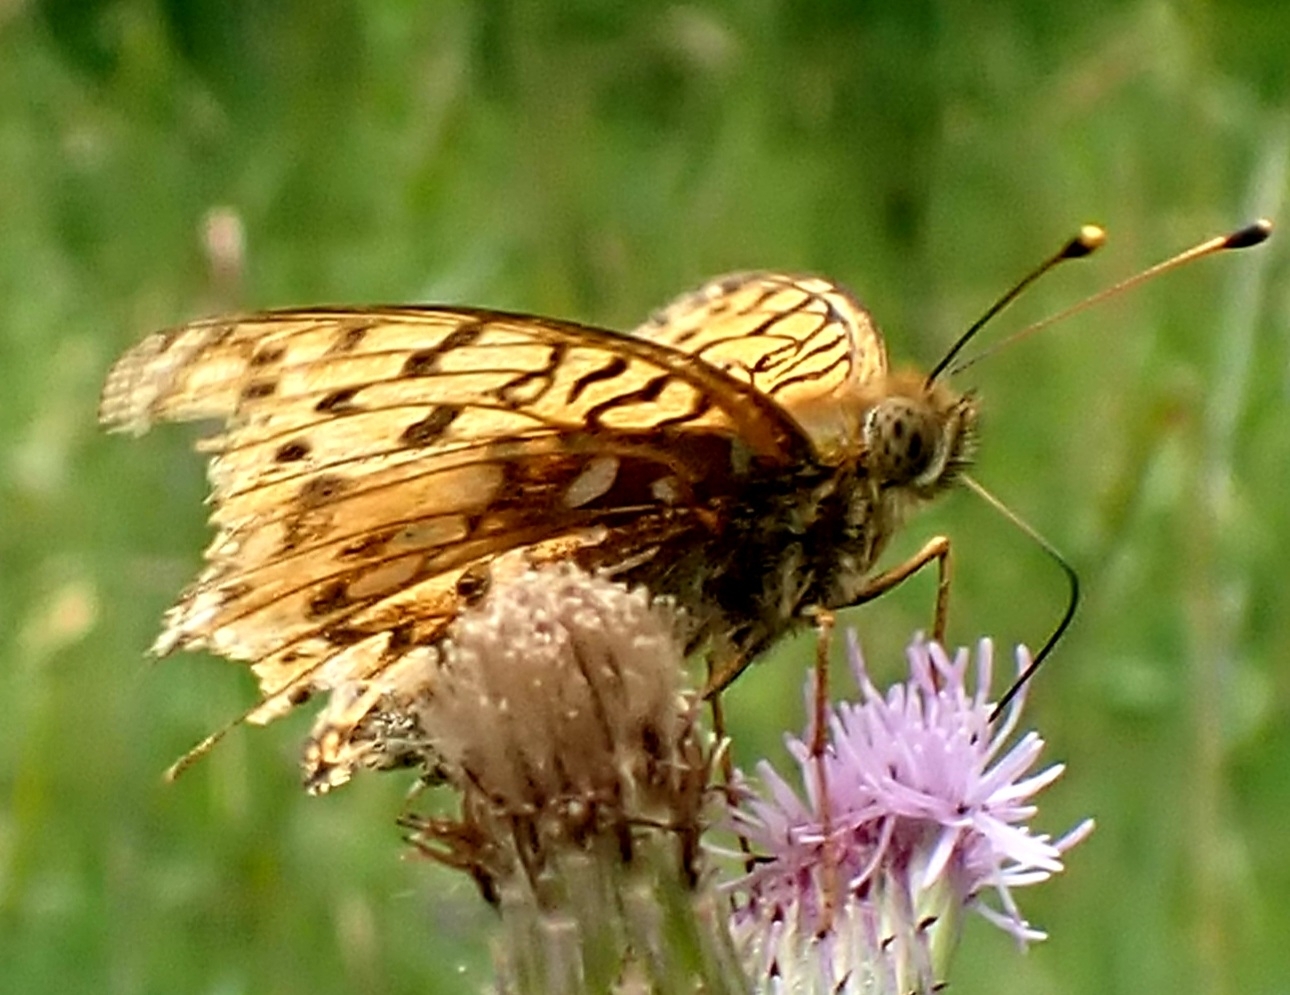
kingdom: Animalia
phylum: Arthropoda
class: Insecta
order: Lepidoptera
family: Nymphalidae
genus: Speyeria
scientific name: Speyeria aglaja
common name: Dark green fritillary
